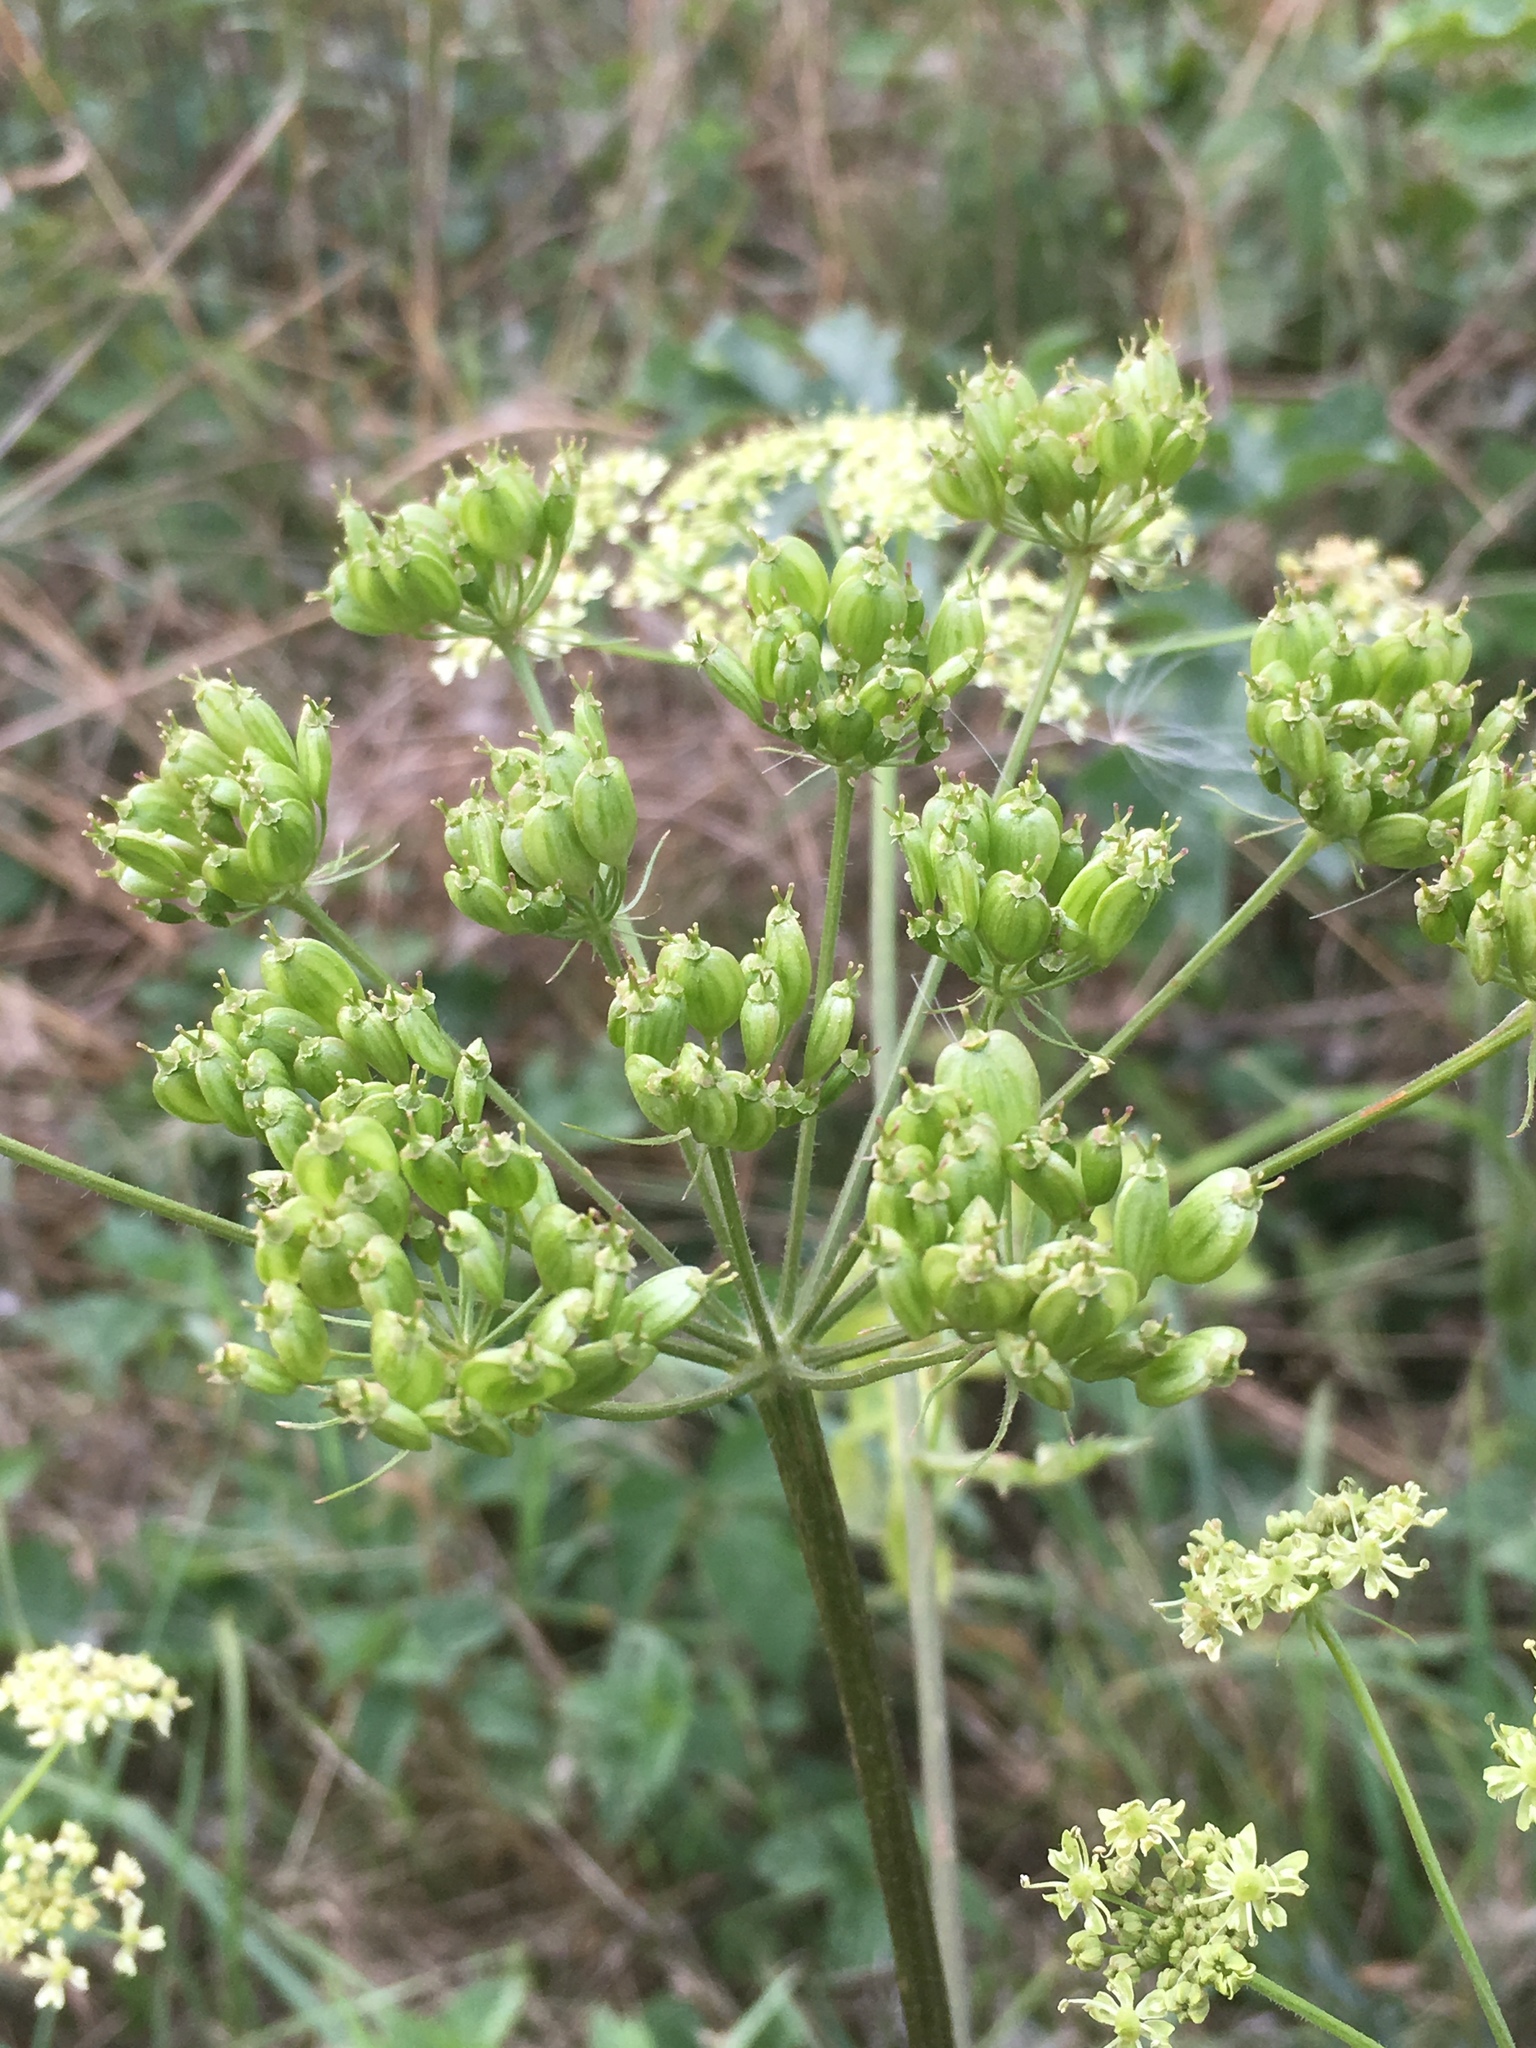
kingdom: Plantae
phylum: Tracheophyta
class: Magnoliopsida
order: Apiales
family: Apiaceae
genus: Heracleum
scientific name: Heracleum sphondylium
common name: Hogweed
